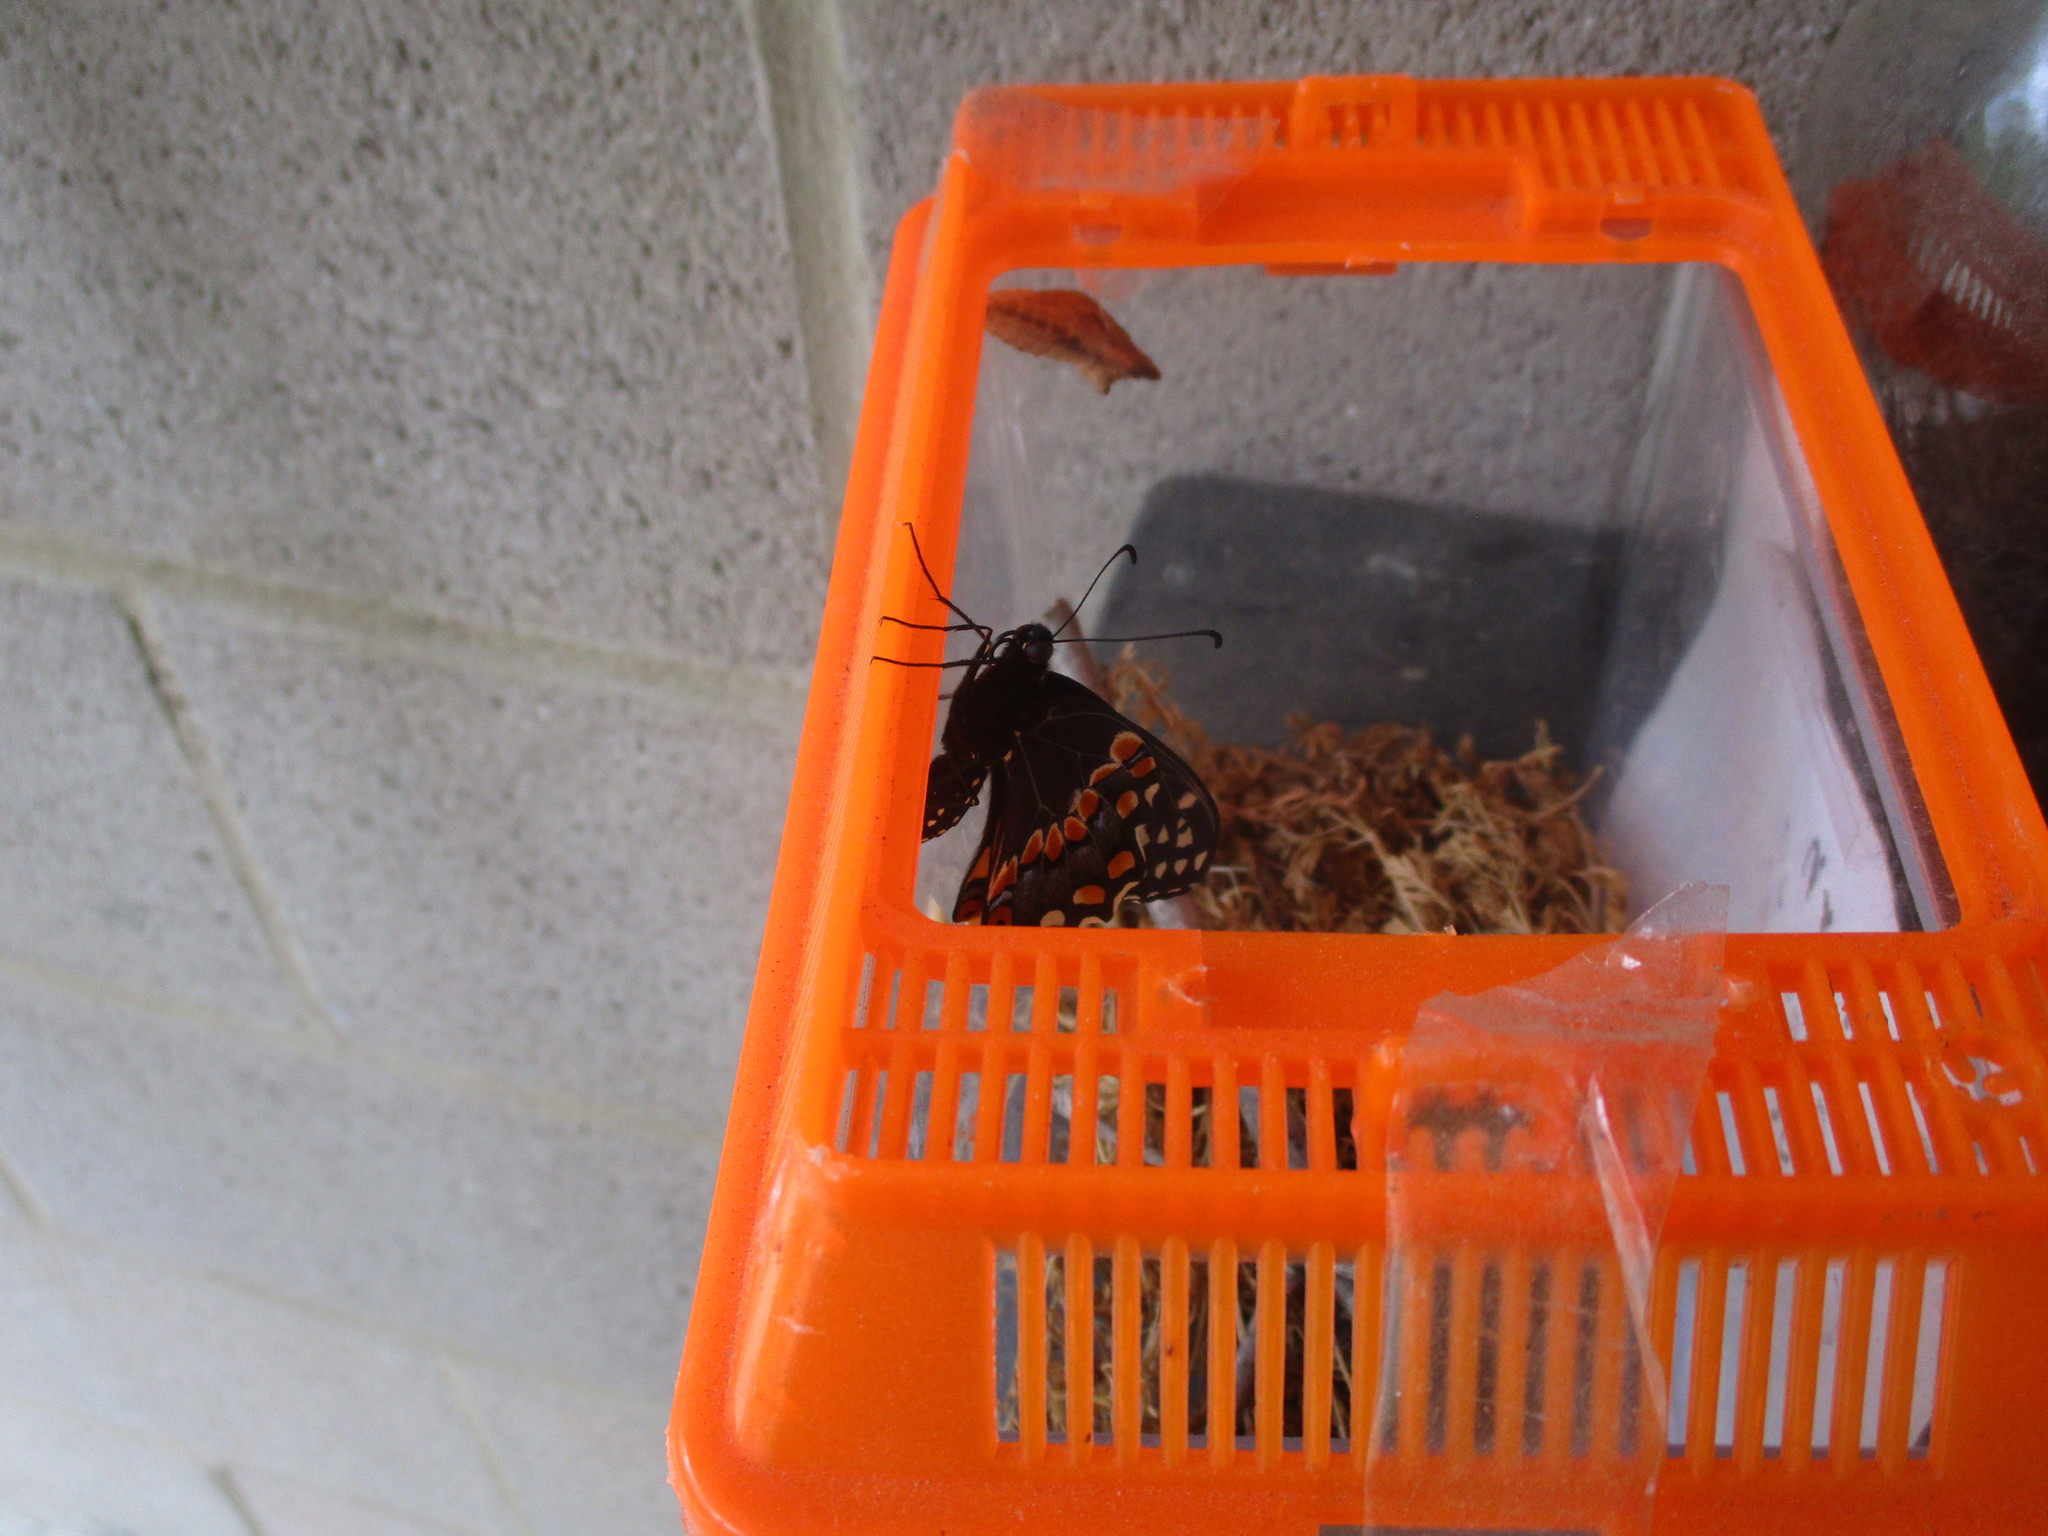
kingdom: Animalia
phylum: Arthropoda
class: Insecta
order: Lepidoptera
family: Papilionidae
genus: Papilio
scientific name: Papilio polyxenes
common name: Black swallowtail
